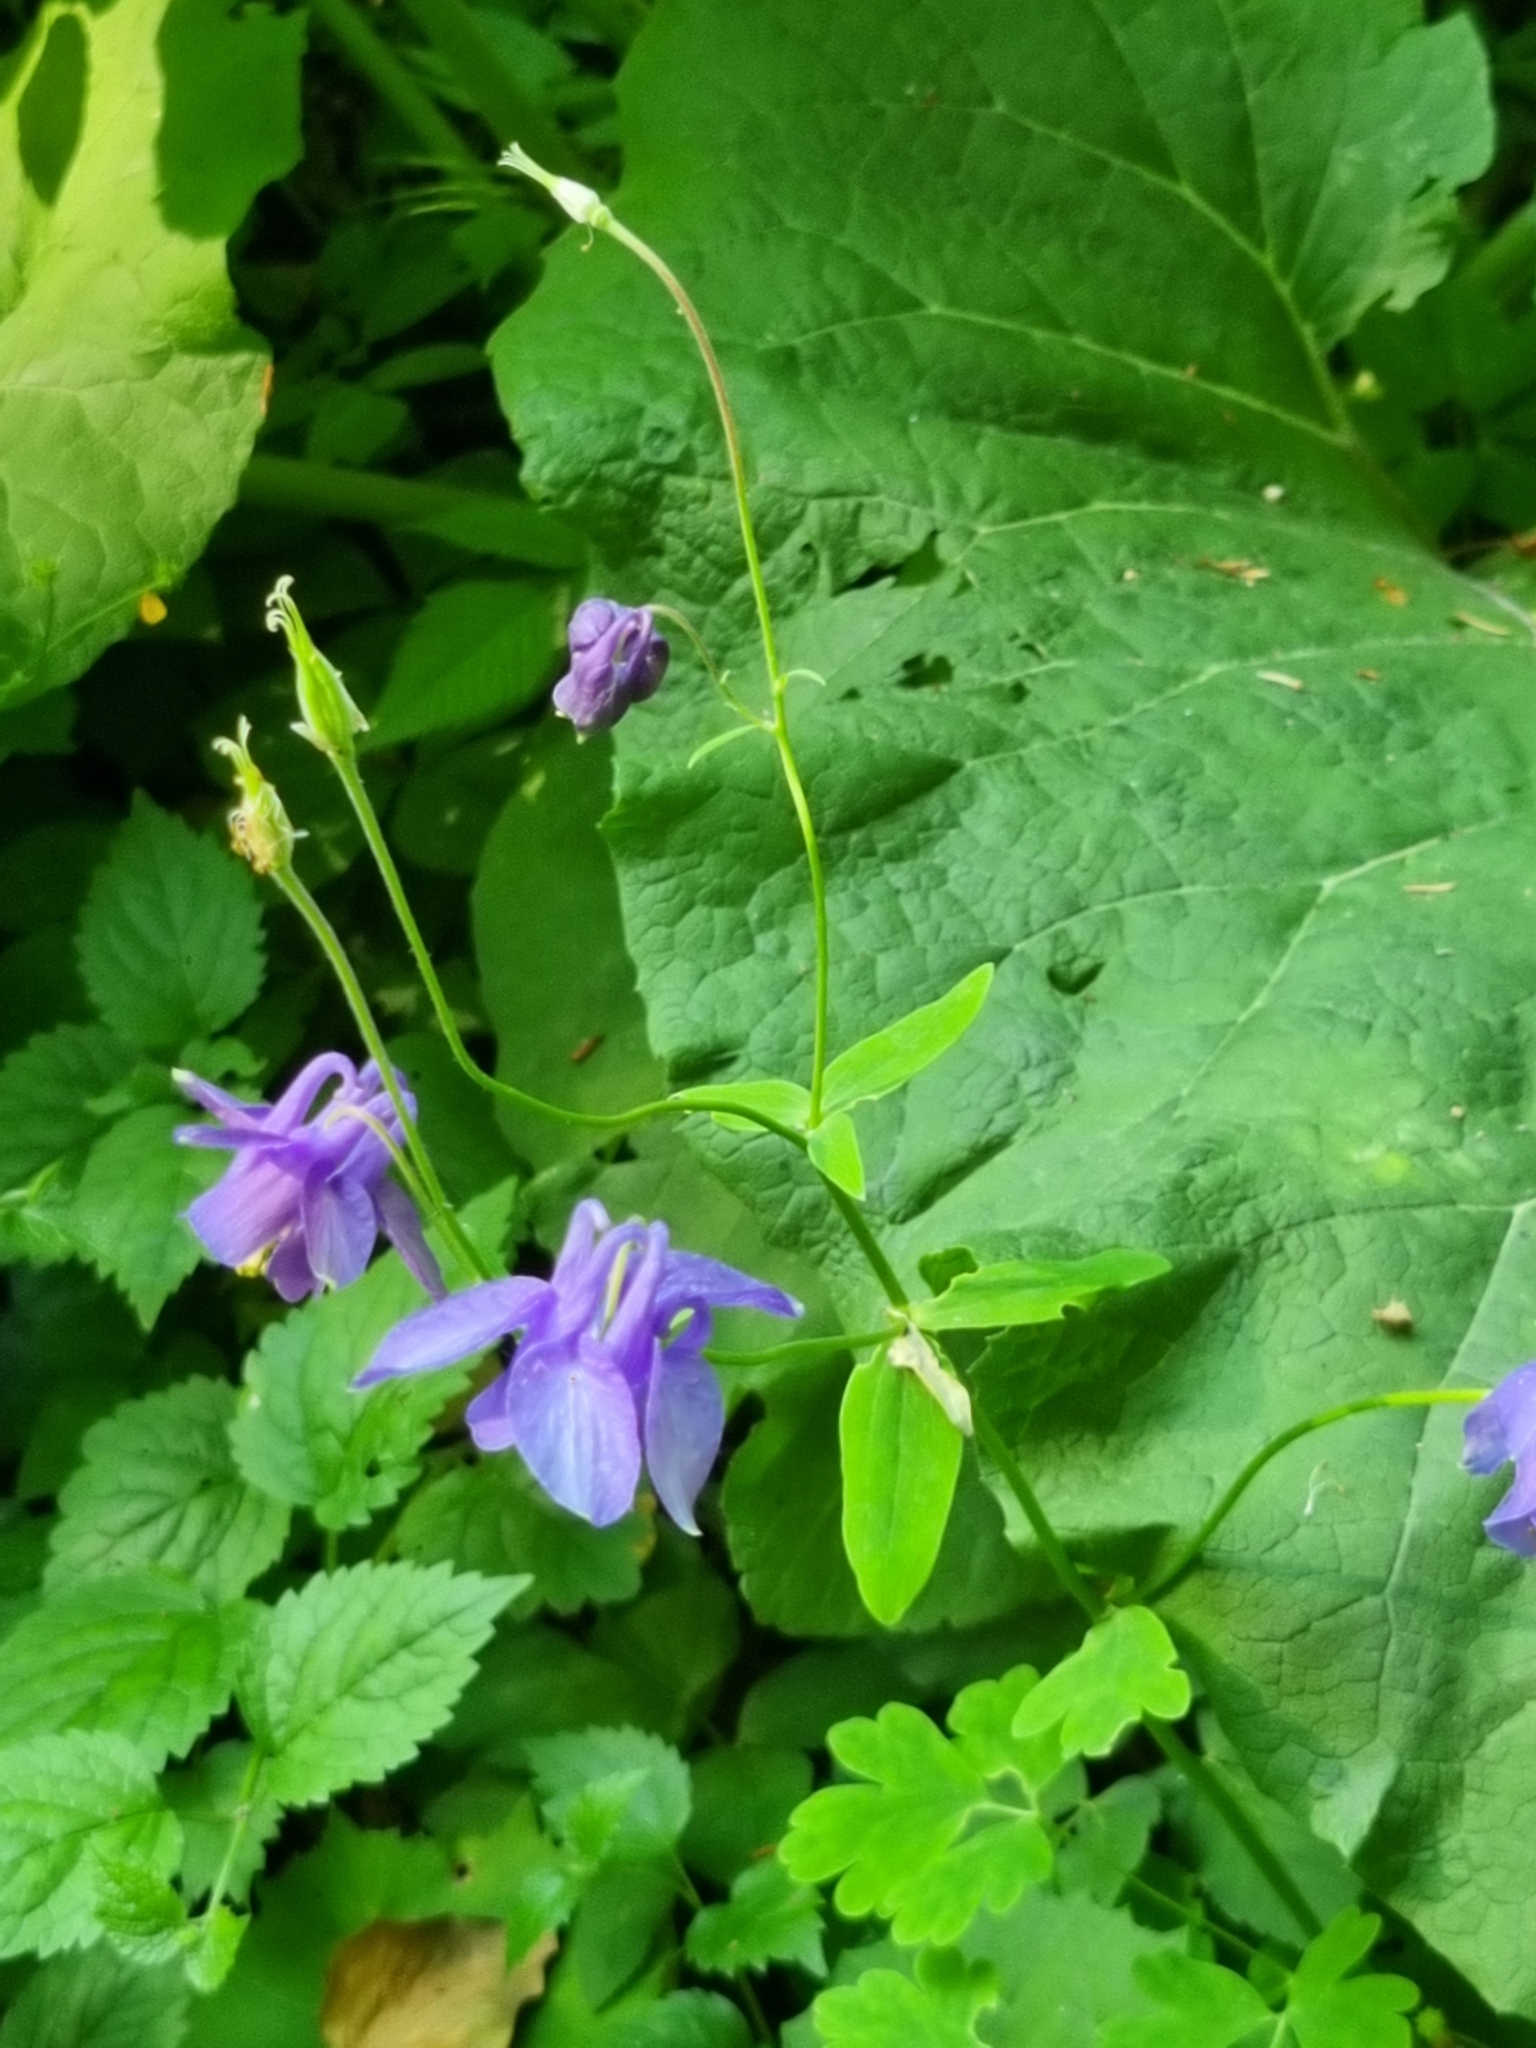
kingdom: Plantae
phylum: Tracheophyta
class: Magnoliopsida
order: Ranunculales
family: Ranunculaceae
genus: Aquilegia
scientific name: Aquilegia vulgaris
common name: Columbine
